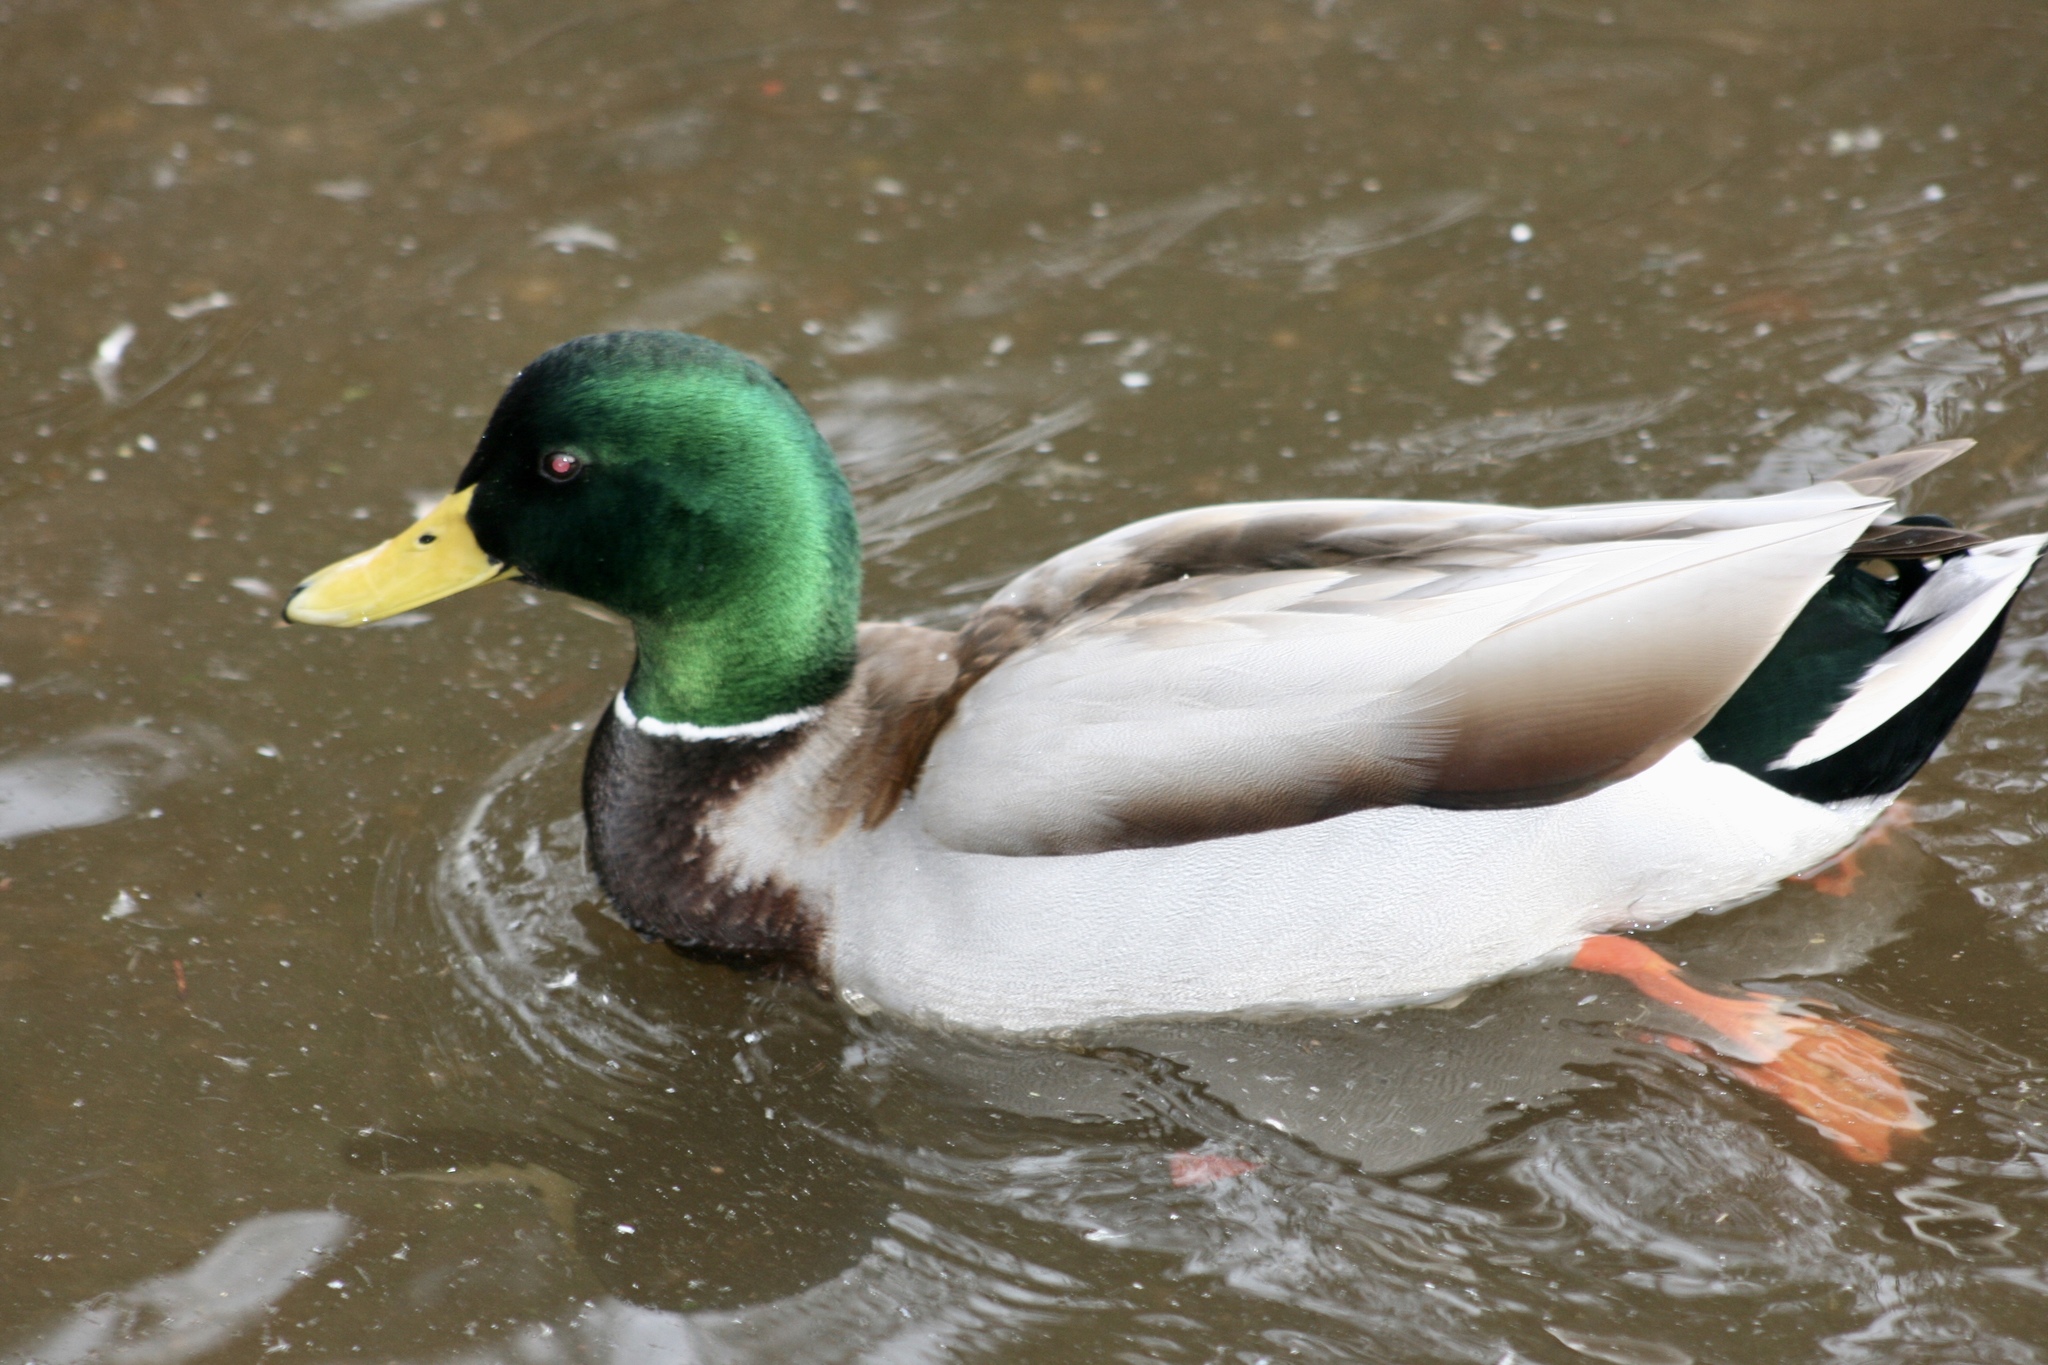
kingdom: Animalia
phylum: Chordata
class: Aves
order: Anseriformes
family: Anatidae
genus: Anas
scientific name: Anas platyrhynchos
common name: Mallard
